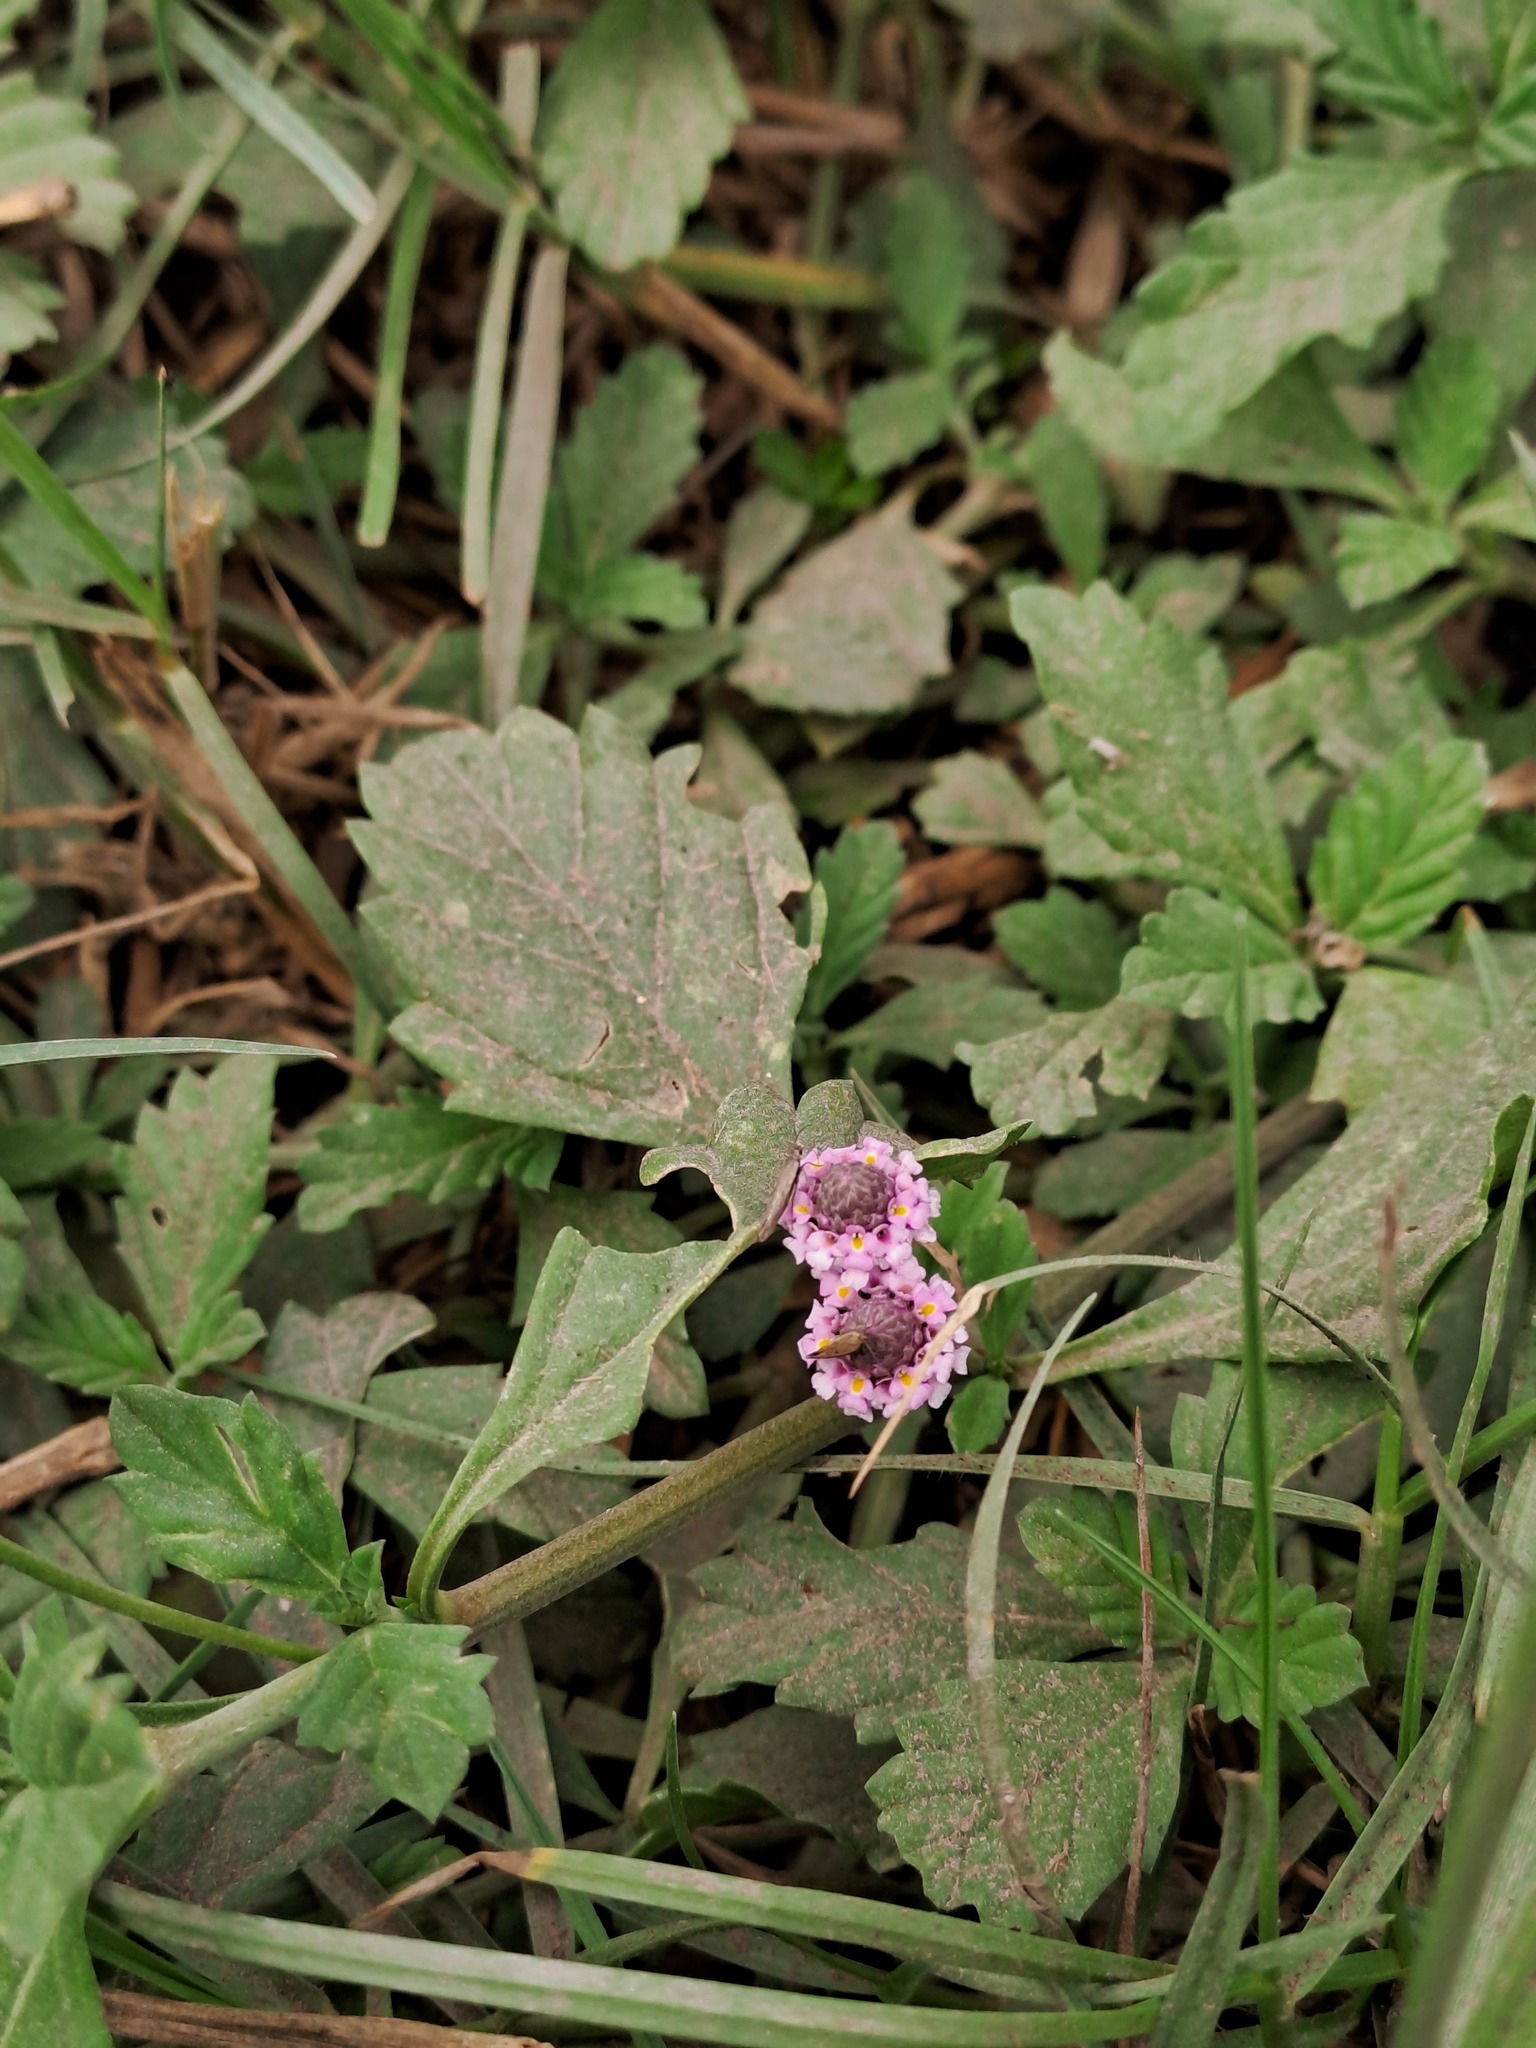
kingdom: Plantae
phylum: Tracheophyta
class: Magnoliopsida
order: Lamiales
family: Verbenaceae
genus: Phyla
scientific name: Phyla nodiflora
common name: Frogfruit
